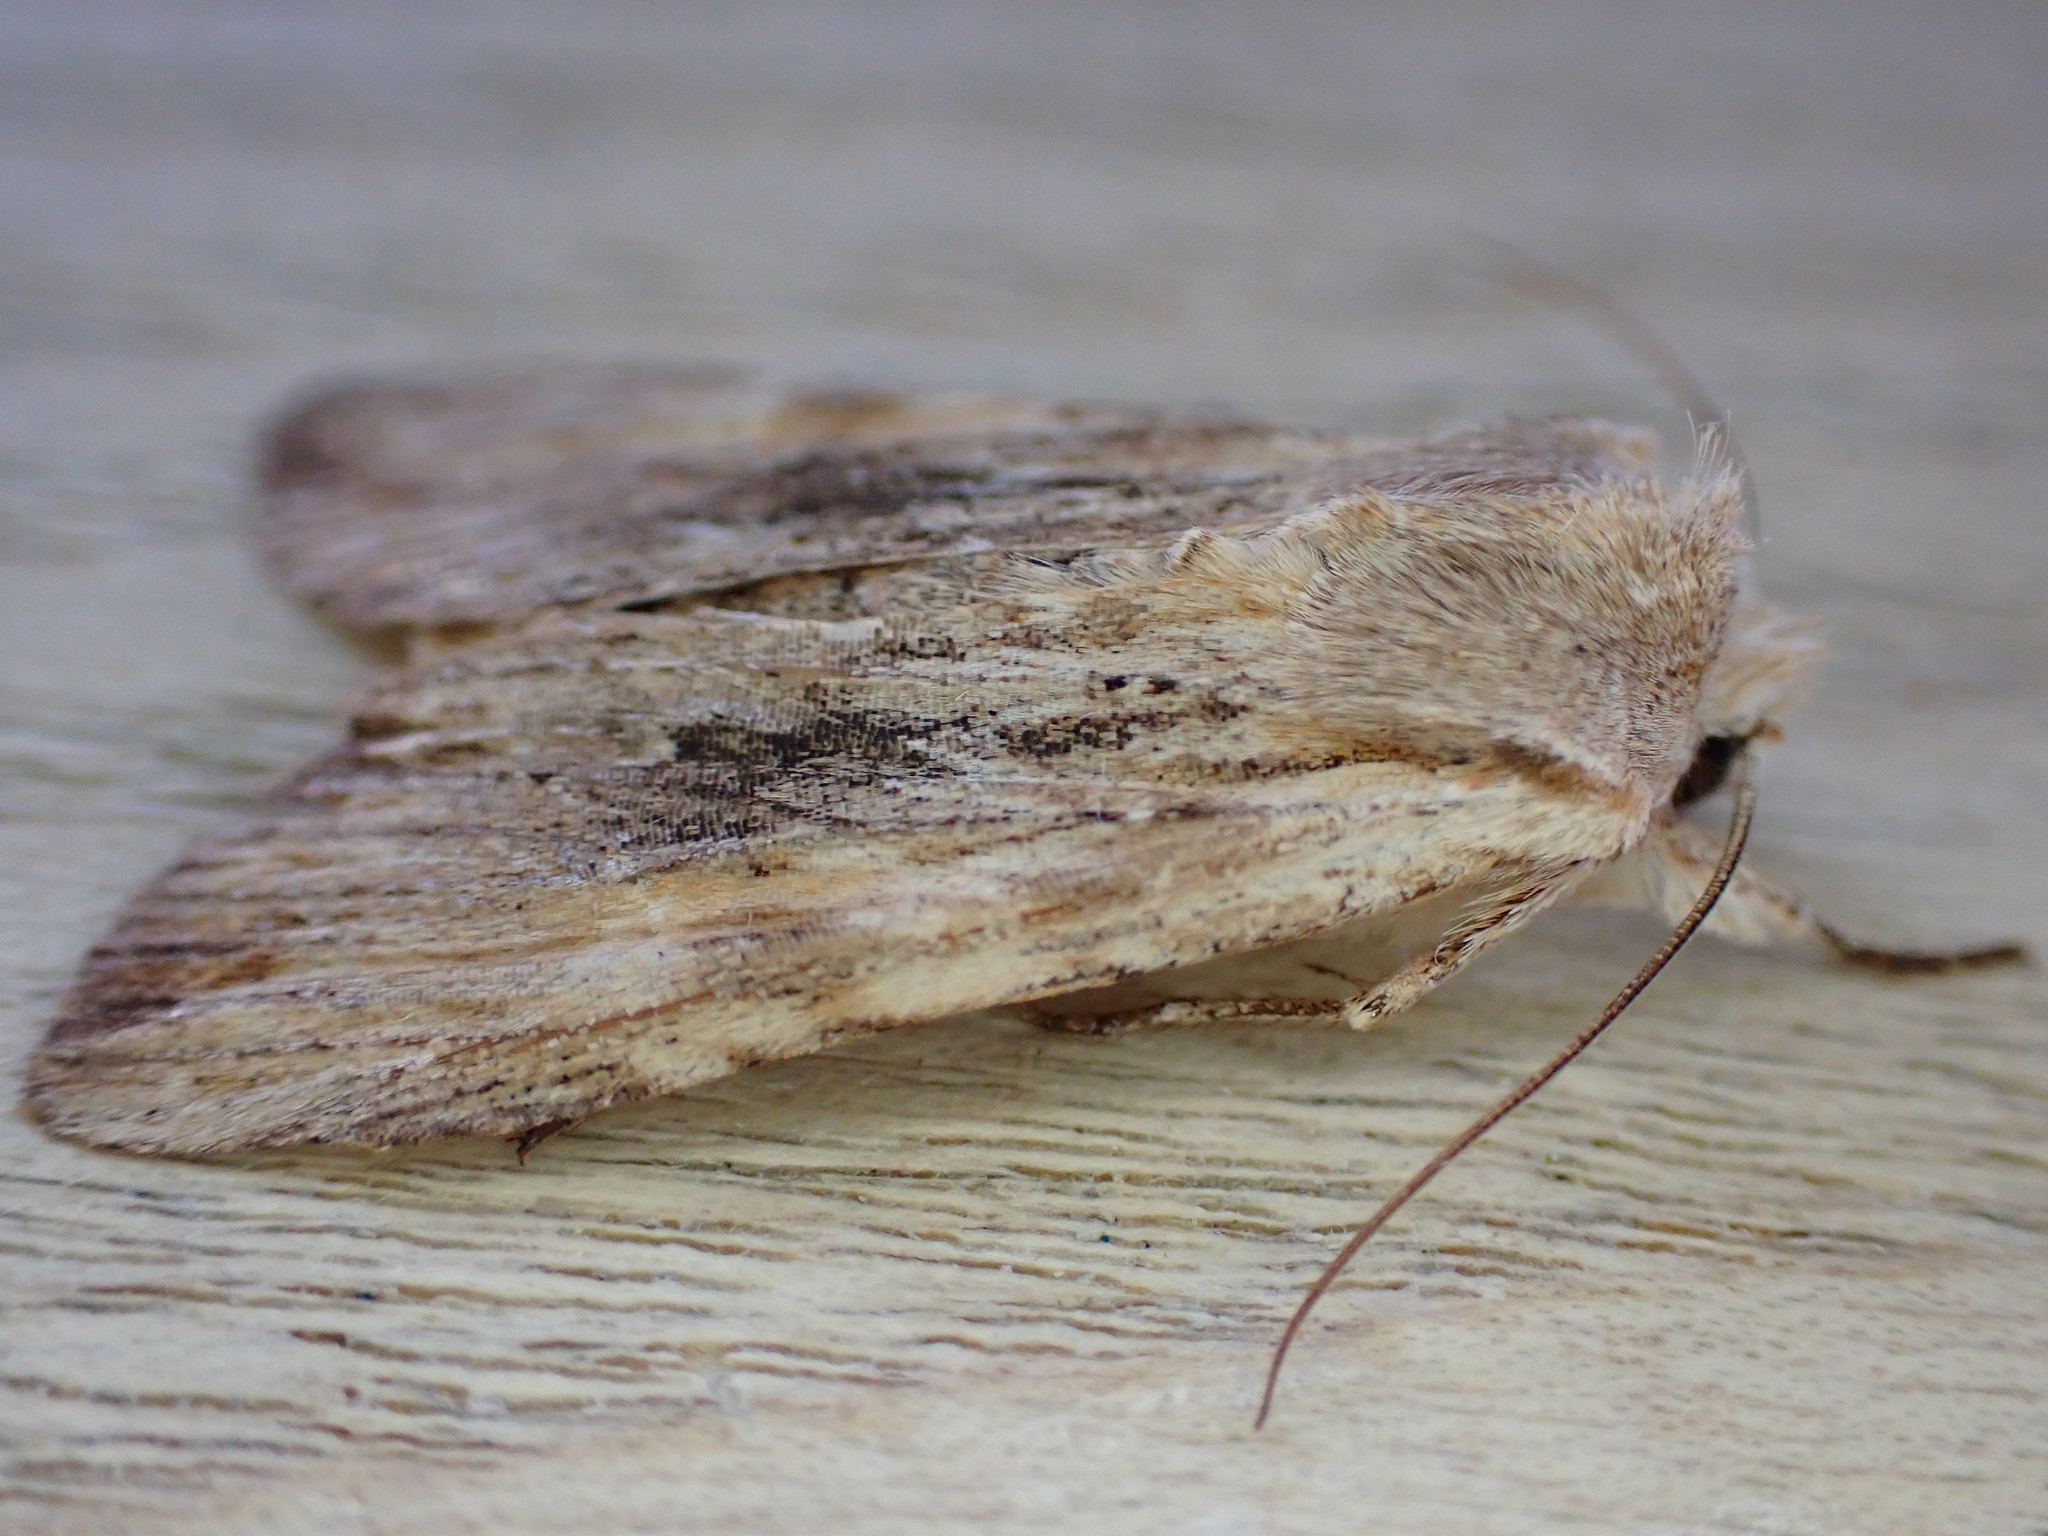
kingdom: Animalia
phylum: Arthropoda
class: Insecta
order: Lepidoptera
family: Noctuidae
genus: Lithophane
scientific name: Lithophane socia
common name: Pale pinion
